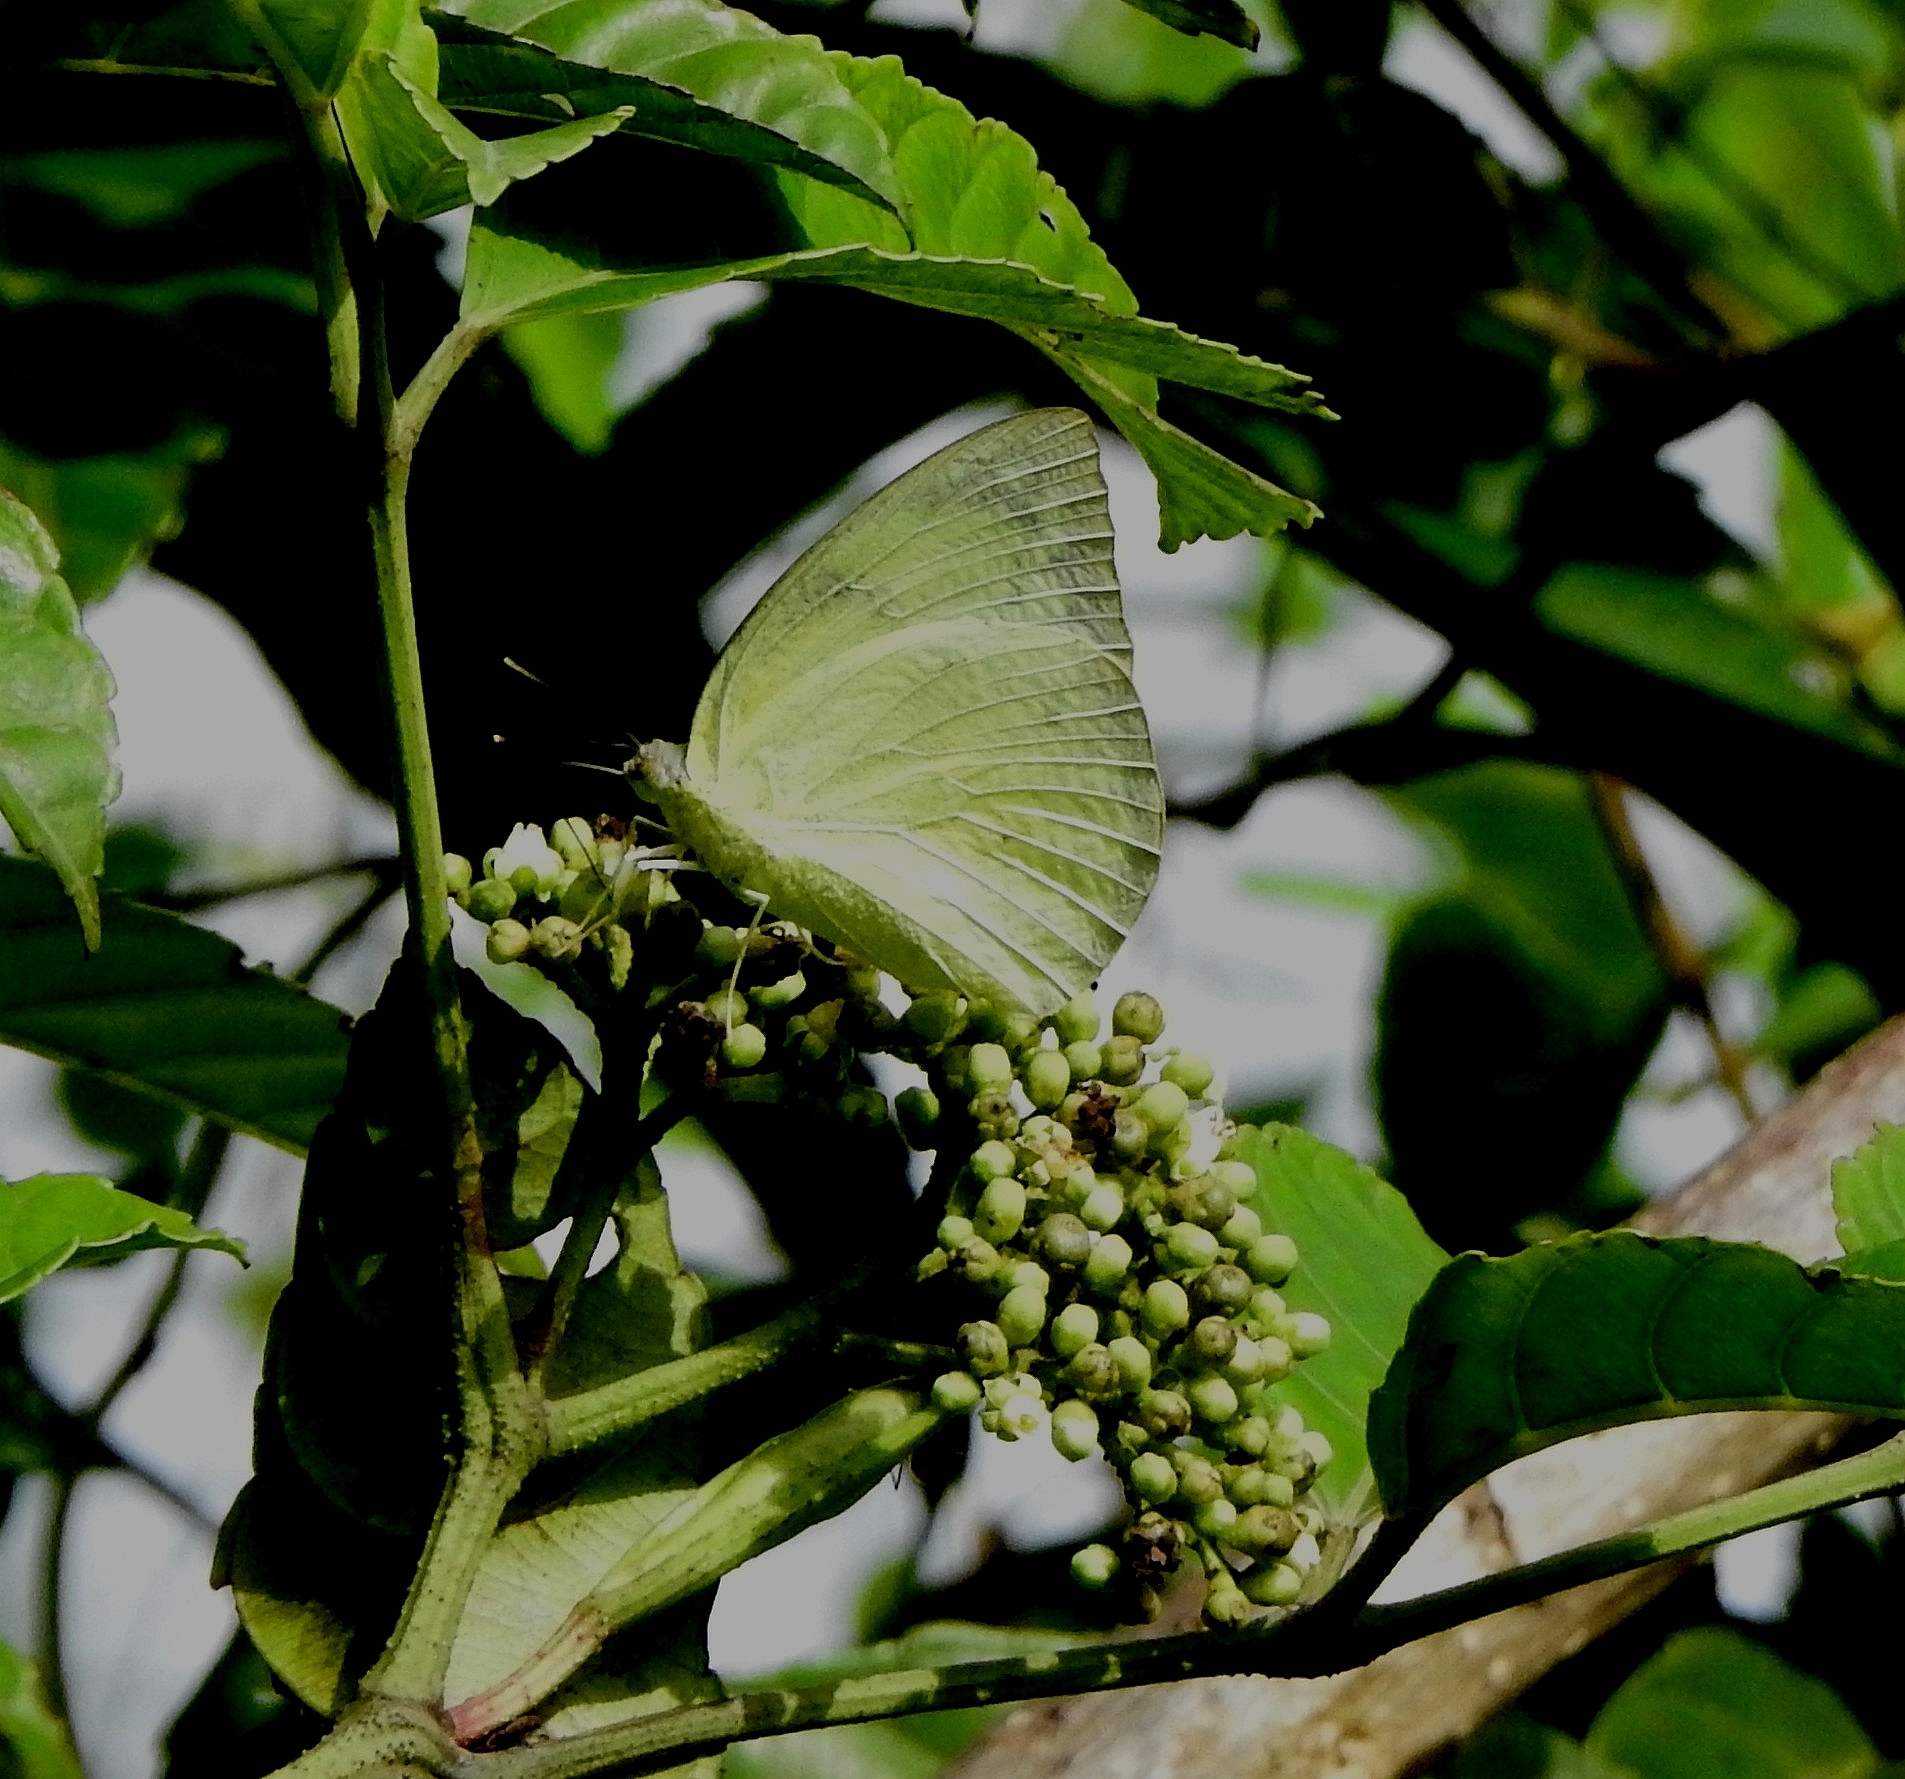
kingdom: Animalia
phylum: Arthropoda
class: Insecta
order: Lepidoptera
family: Pieridae
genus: Catopsilia
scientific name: Catopsilia pomona
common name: Common emigrant
